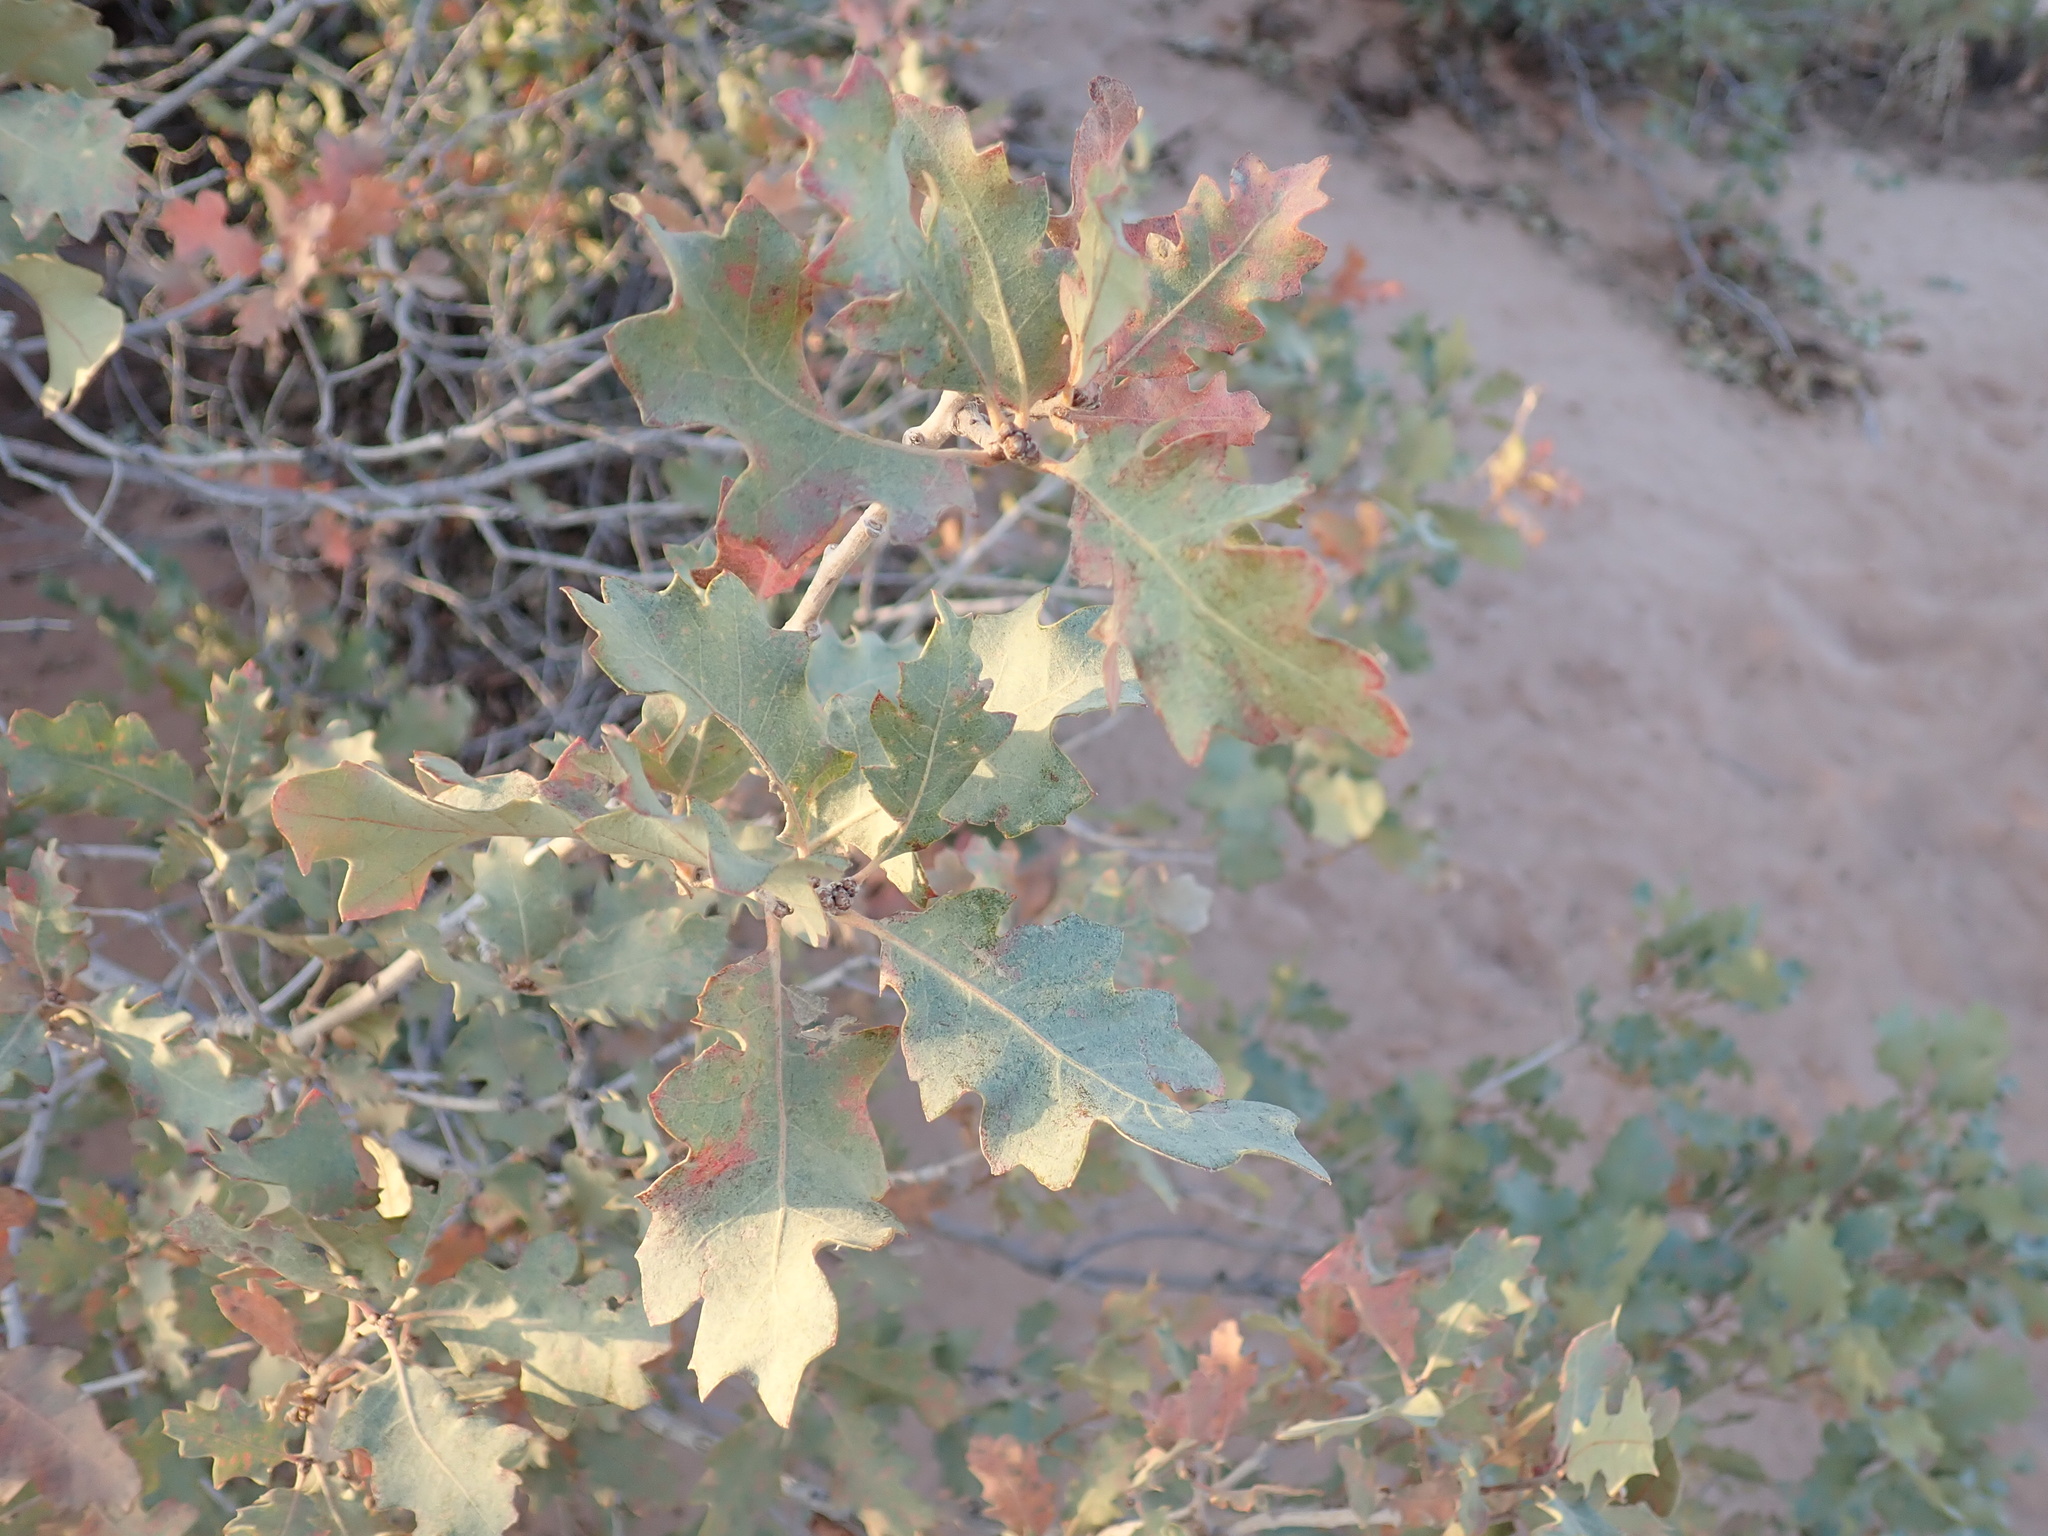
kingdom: Plantae
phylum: Tracheophyta
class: Magnoliopsida
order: Fagales
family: Fagaceae
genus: Quercus
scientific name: Quercus welshii
